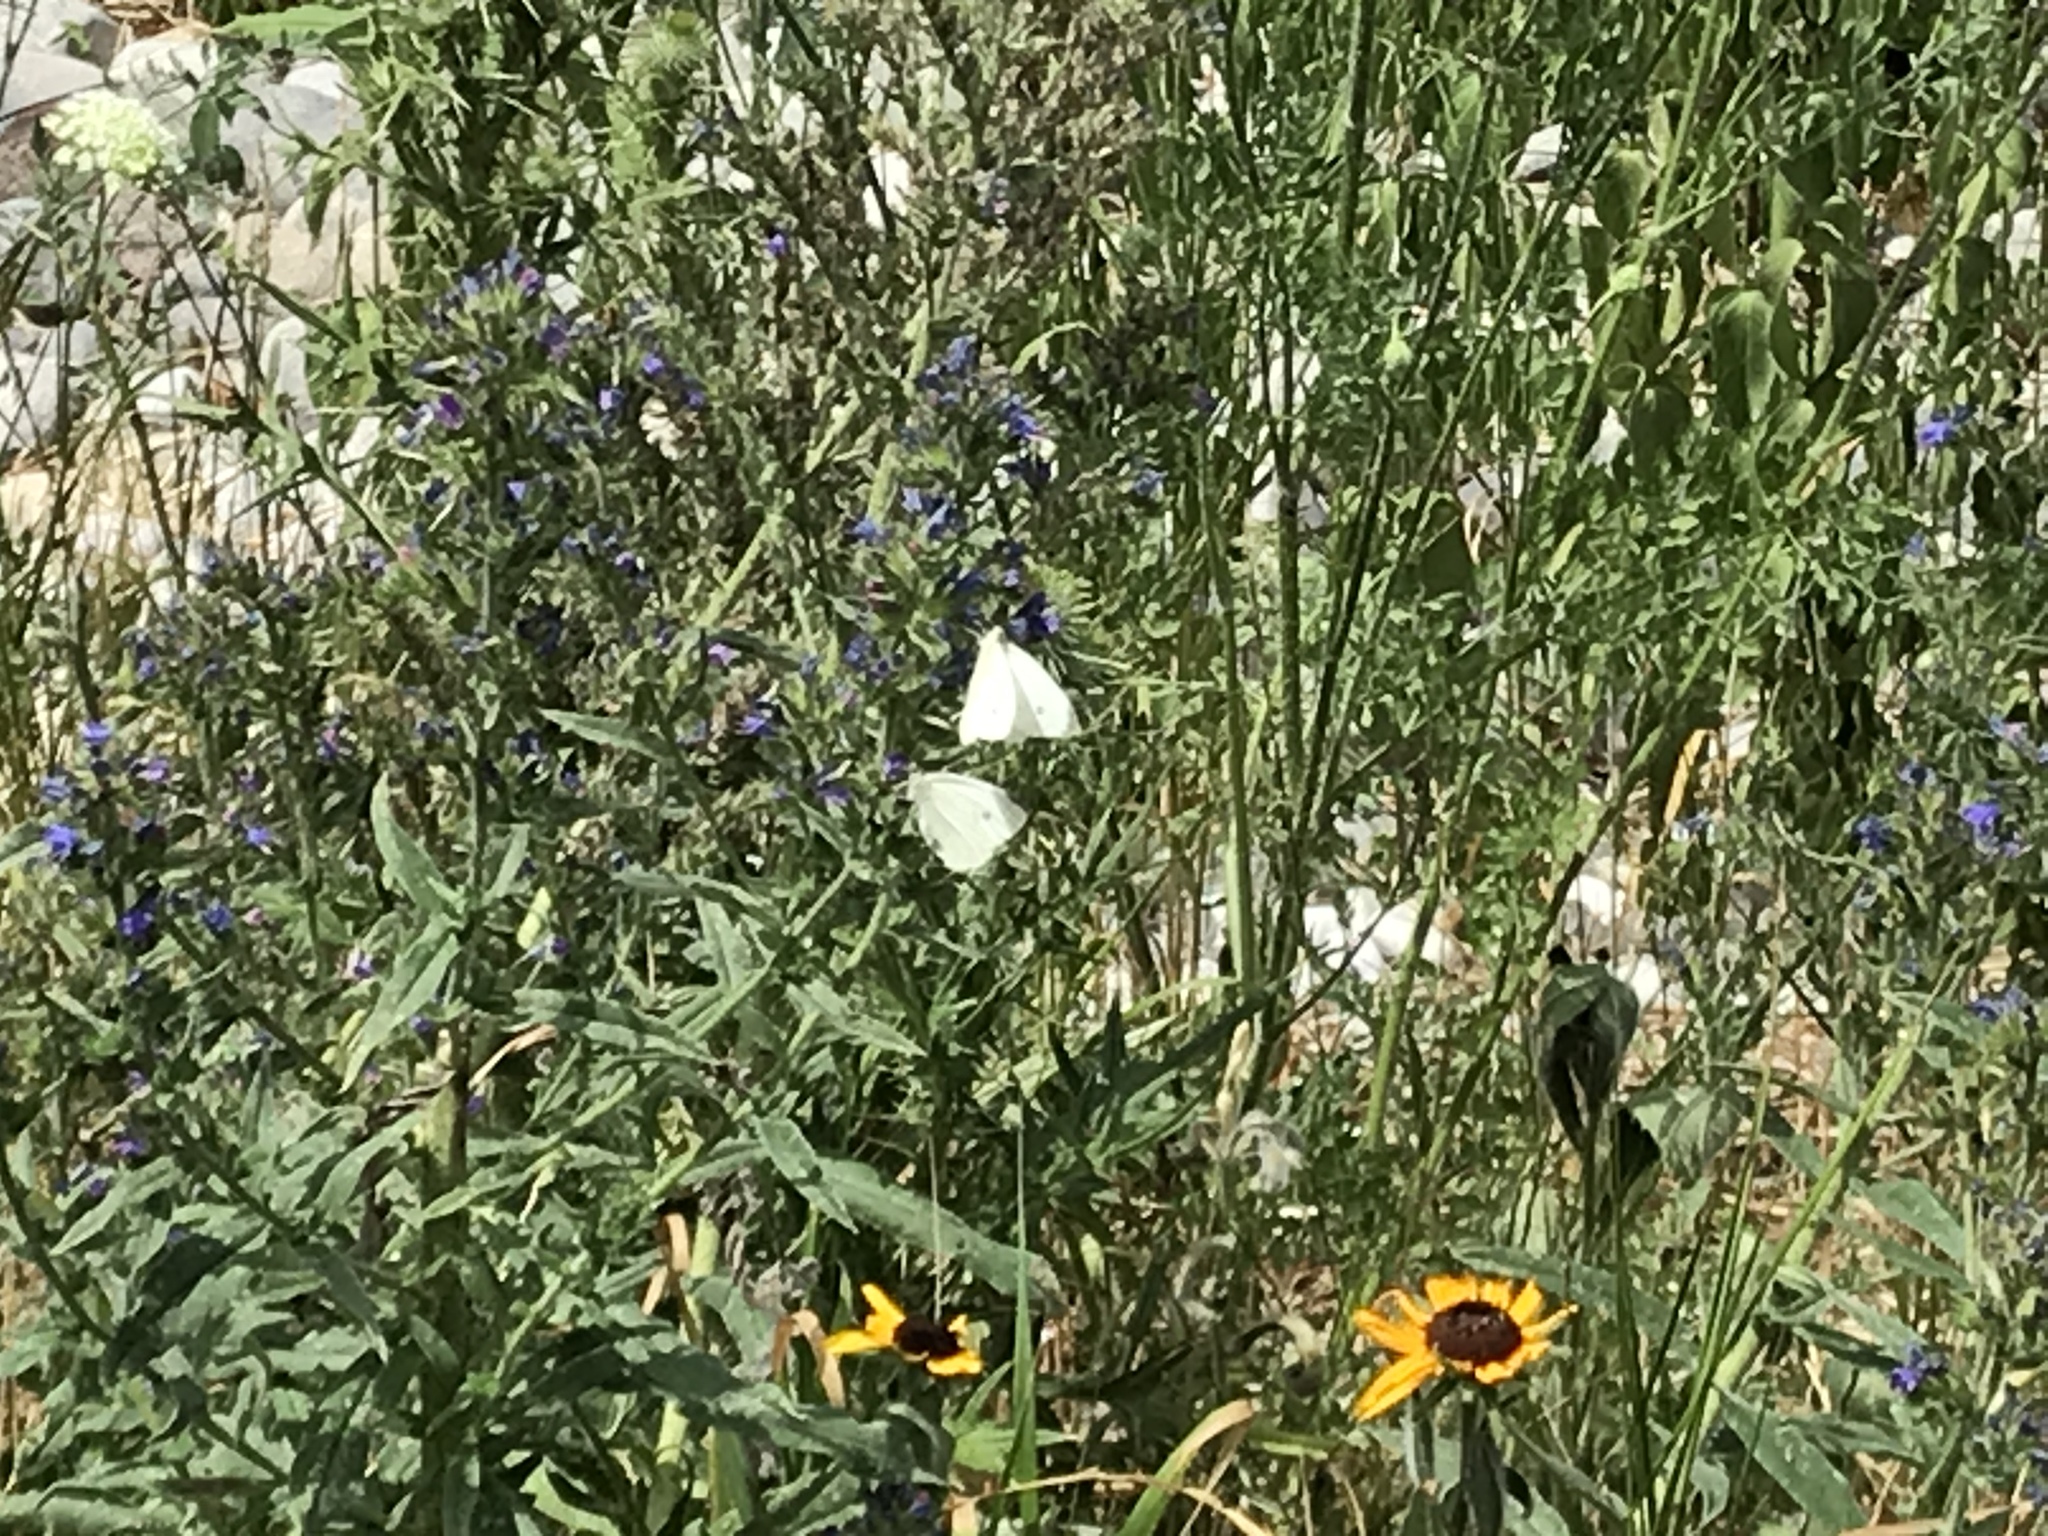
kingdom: Animalia
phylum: Arthropoda
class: Insecta
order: Lepidoptera
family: Pieridae
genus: Pieris
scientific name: Pieris rapae
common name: Small white
